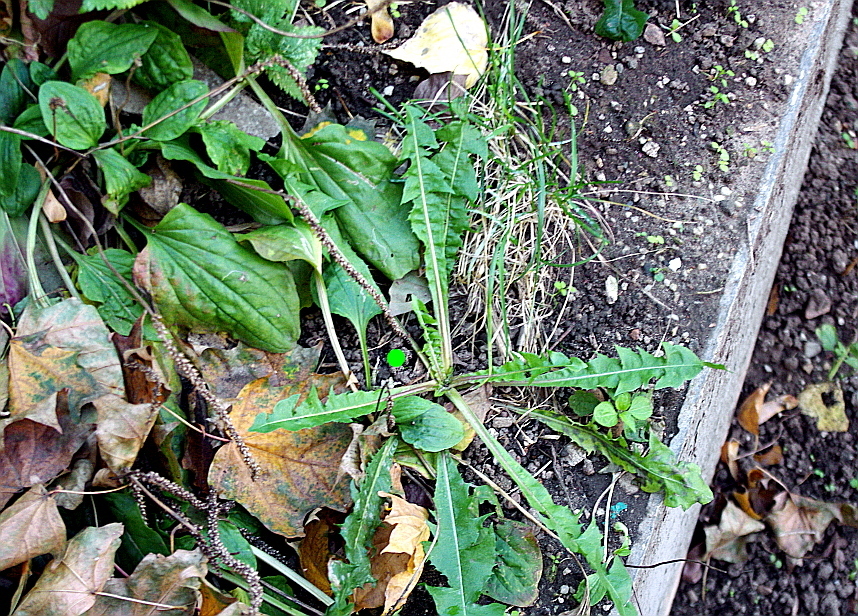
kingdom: Plantae
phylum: Tracheophyta
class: Magnoliopsida
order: Asterales
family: Asteraceae
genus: Taraxacum
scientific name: Taraxacum officinale
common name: Common dandelion
